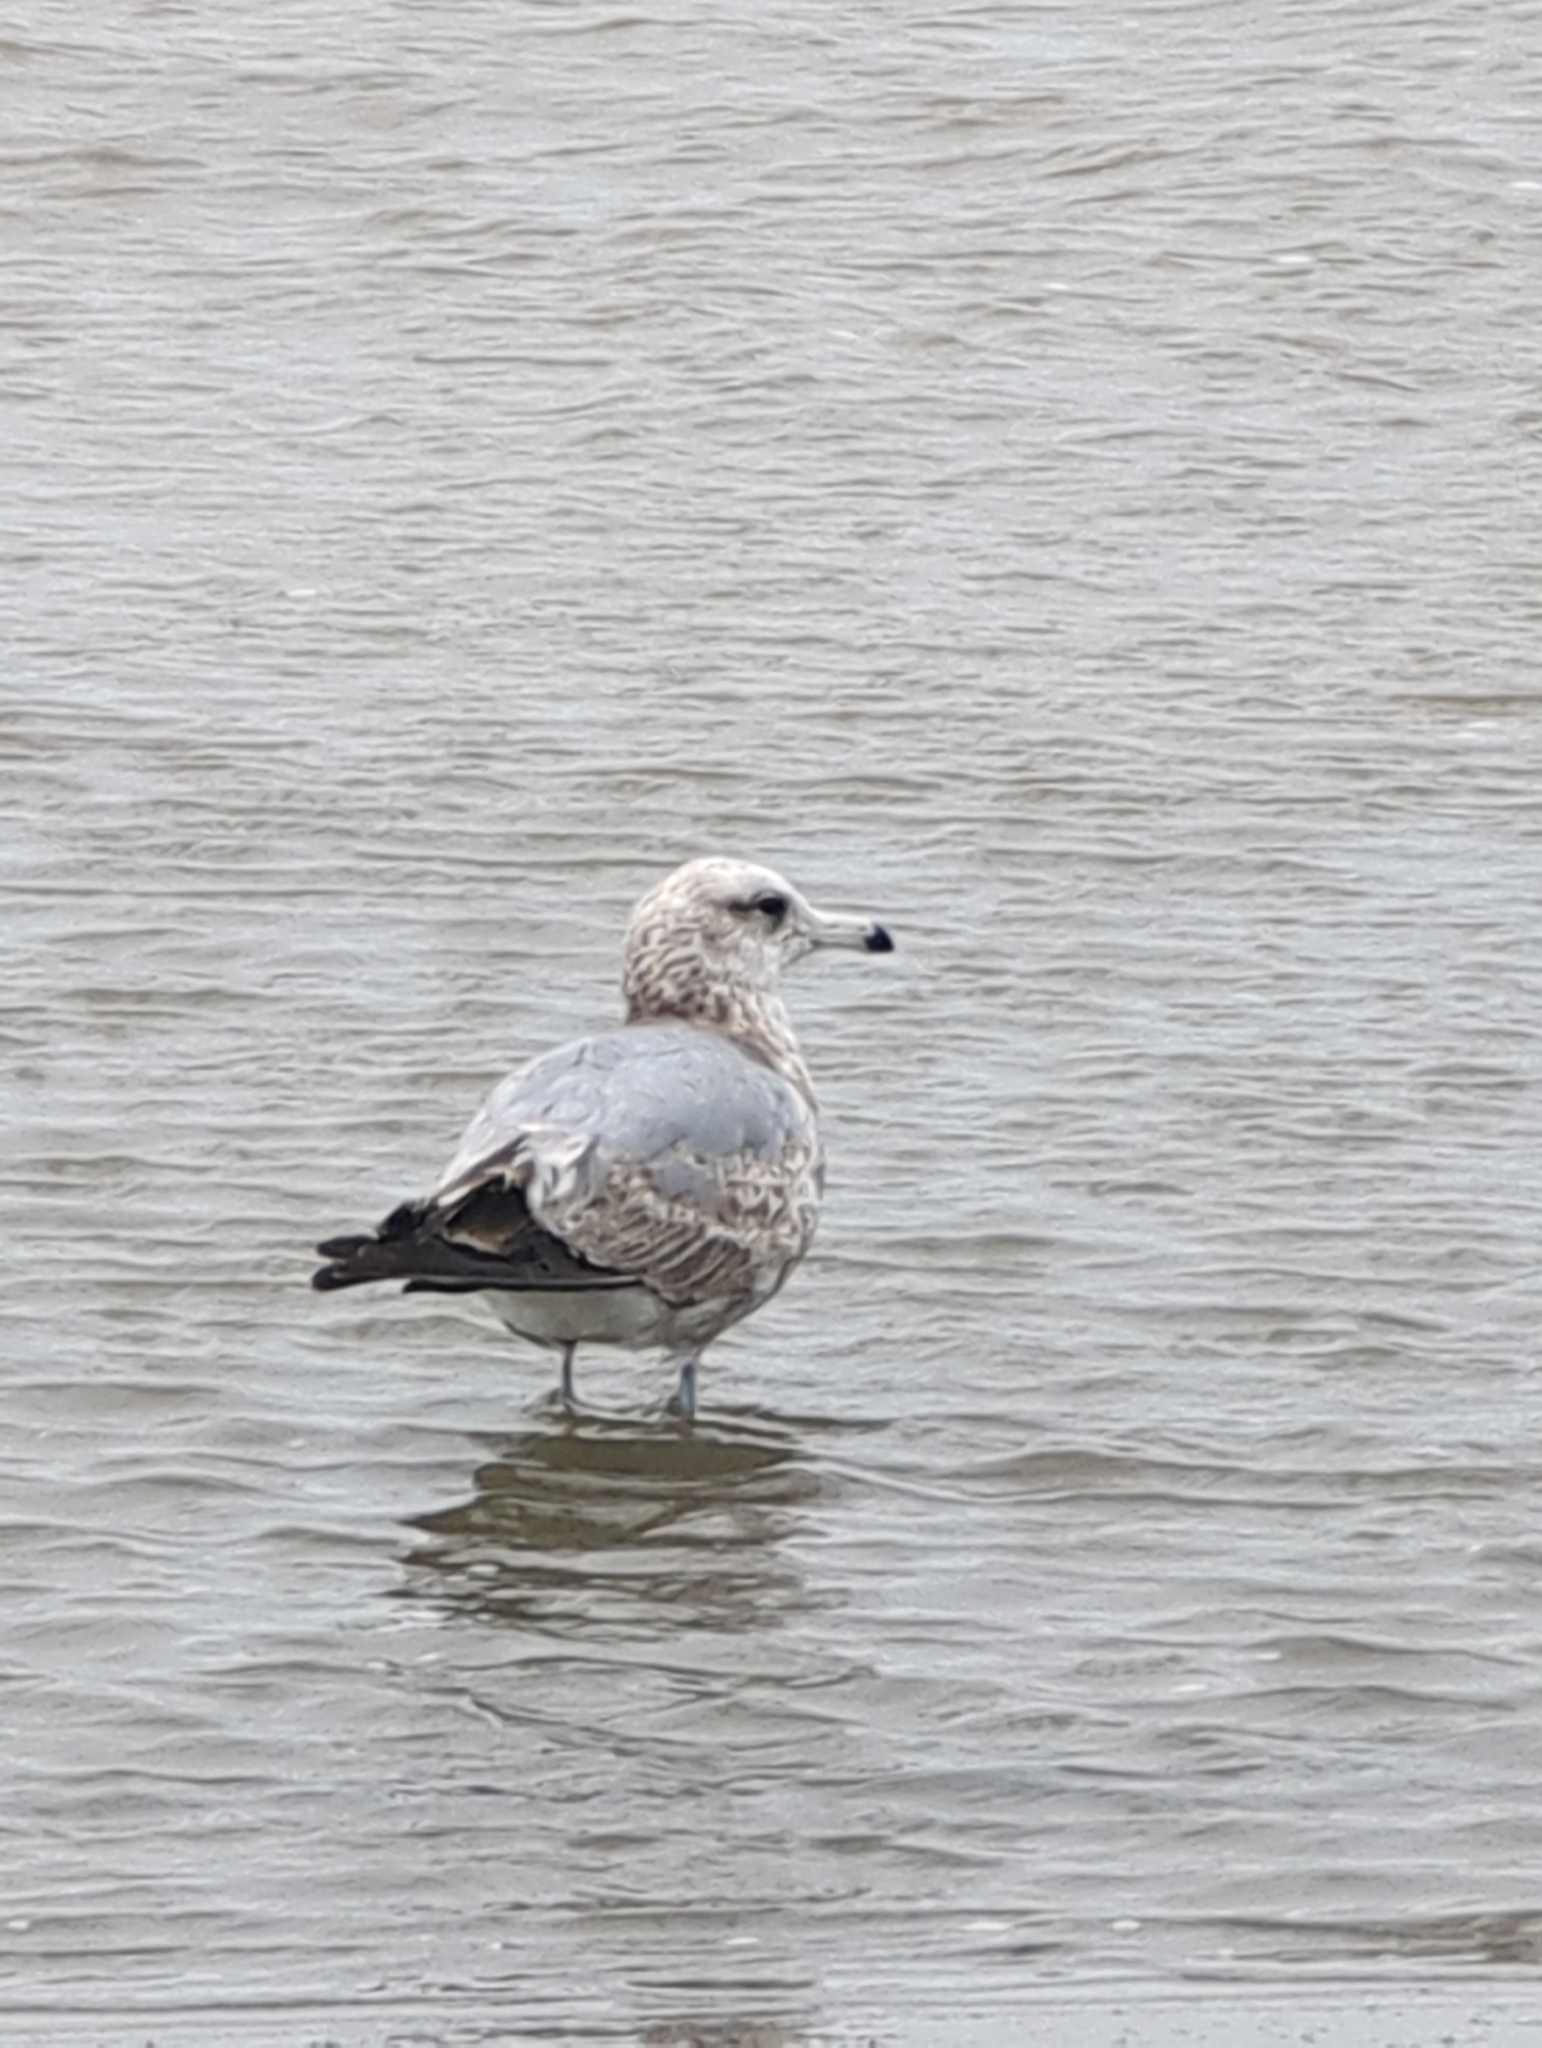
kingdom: Animalia
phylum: Chordata
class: Aves
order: Charadriiformes
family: Laridae
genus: Larus
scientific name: Larus californicus
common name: California gull
